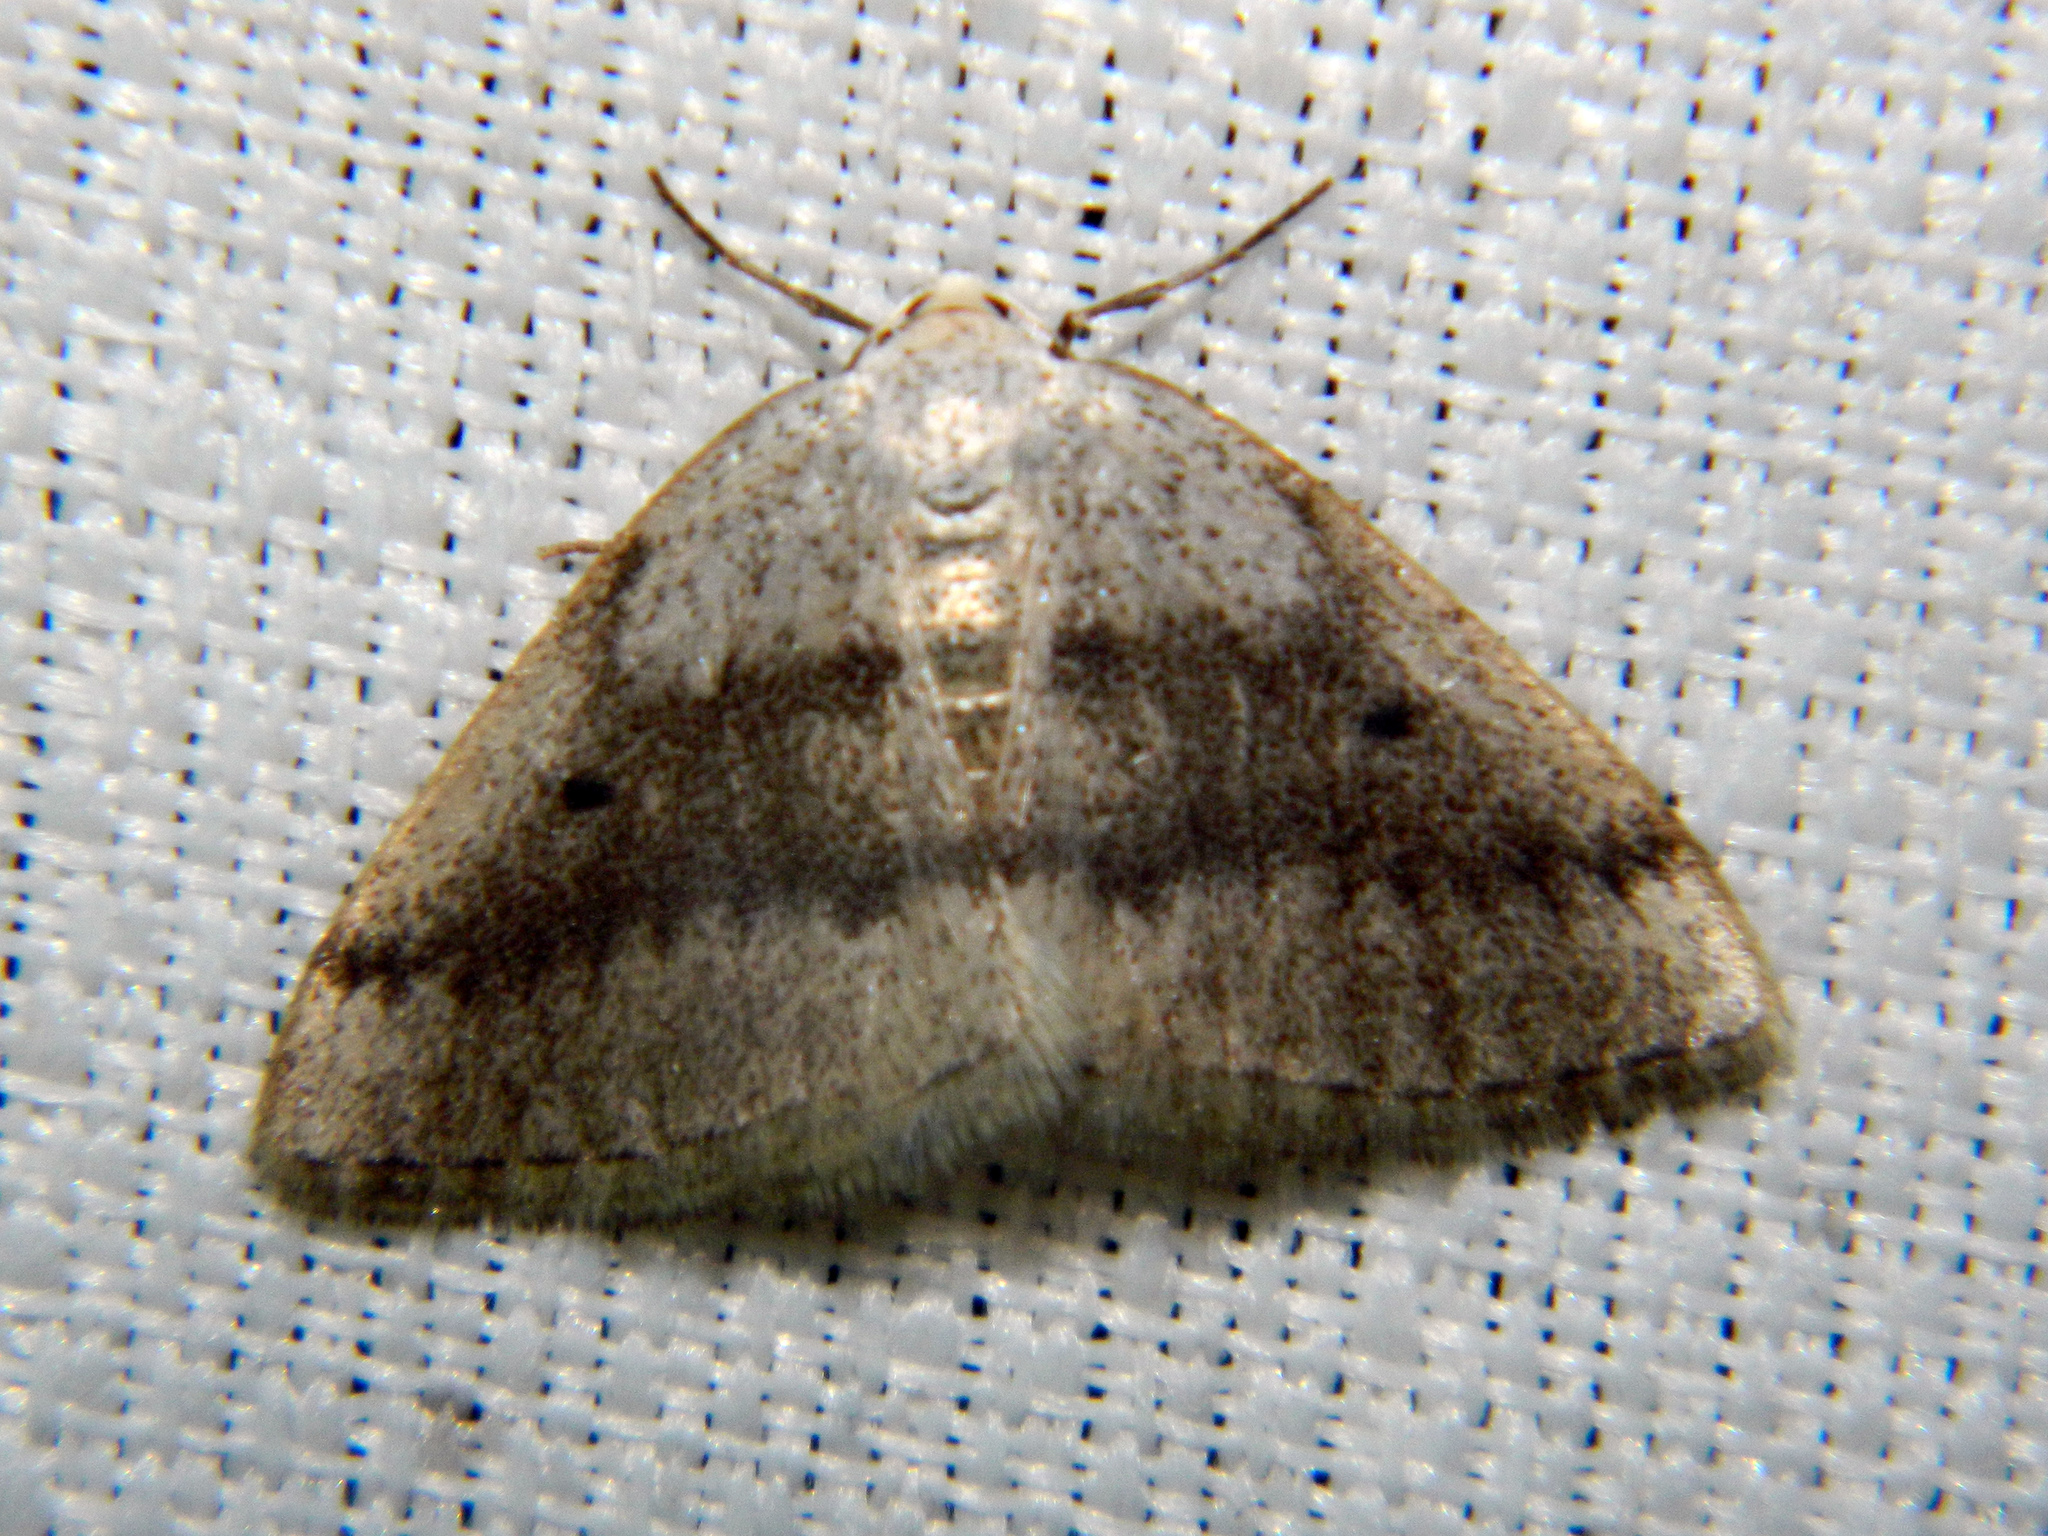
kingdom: Animalia
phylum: Arthropoda
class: Insecta
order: Lepidoptera
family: Geometridae
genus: Lomographa
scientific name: Lomographa glomeraria
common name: Gray spring moth
